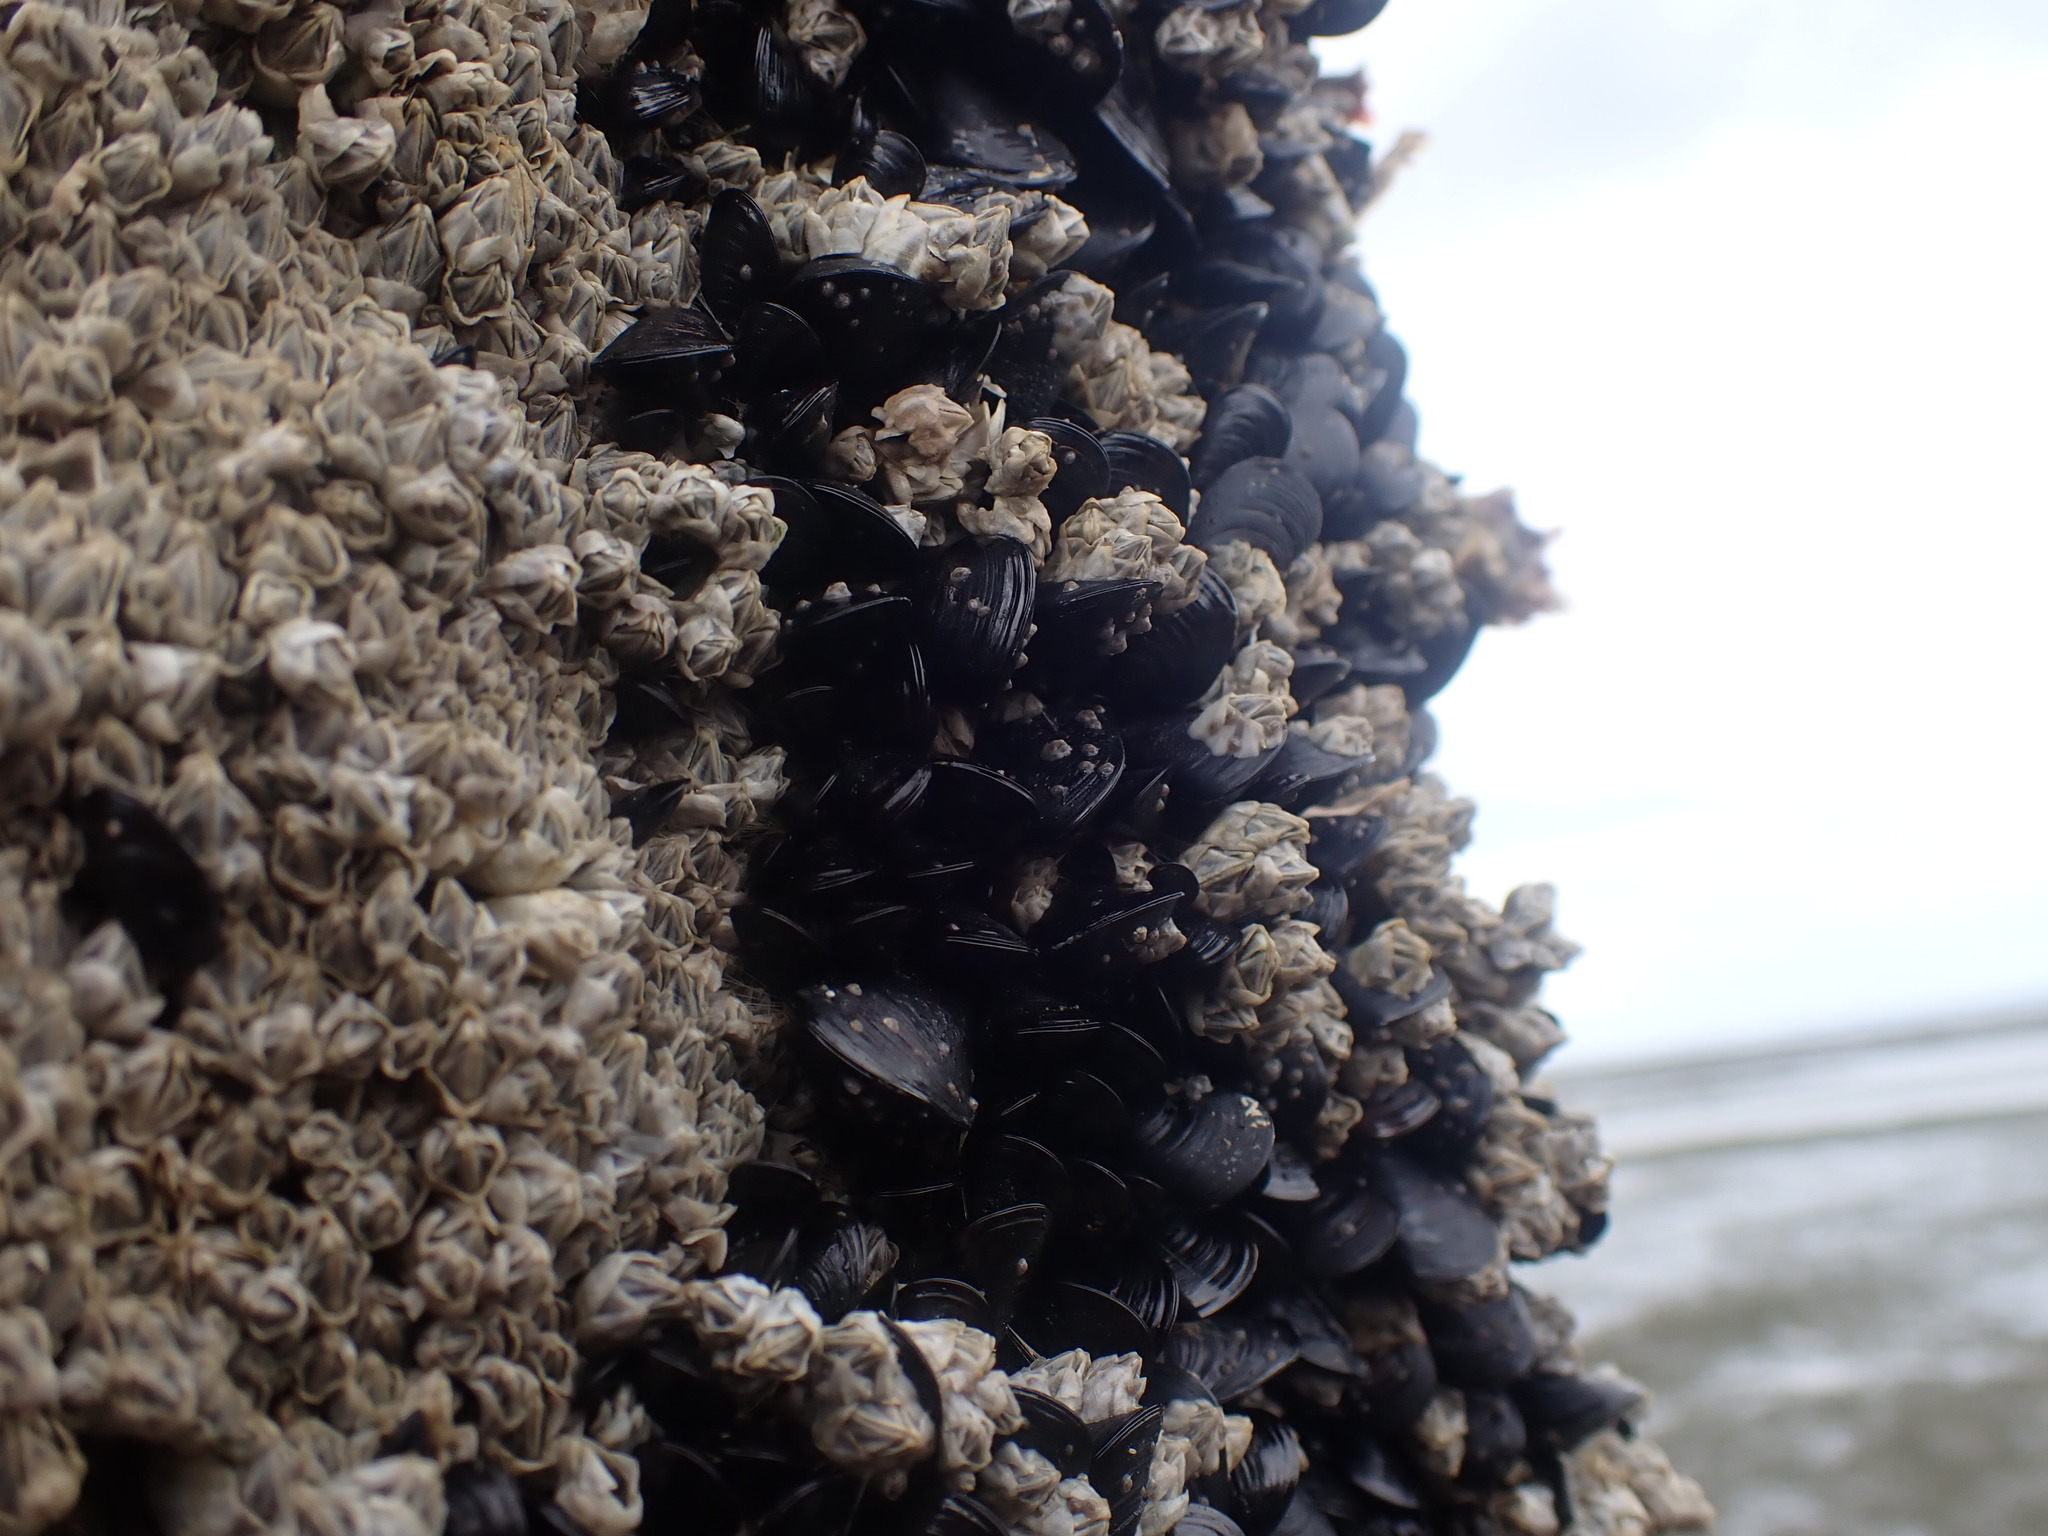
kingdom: Animalia
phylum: Mollusca
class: Bivalvia
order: Mytilida
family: Mytilidae
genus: Xenostrobus
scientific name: Xenostrobus neozelanicus
